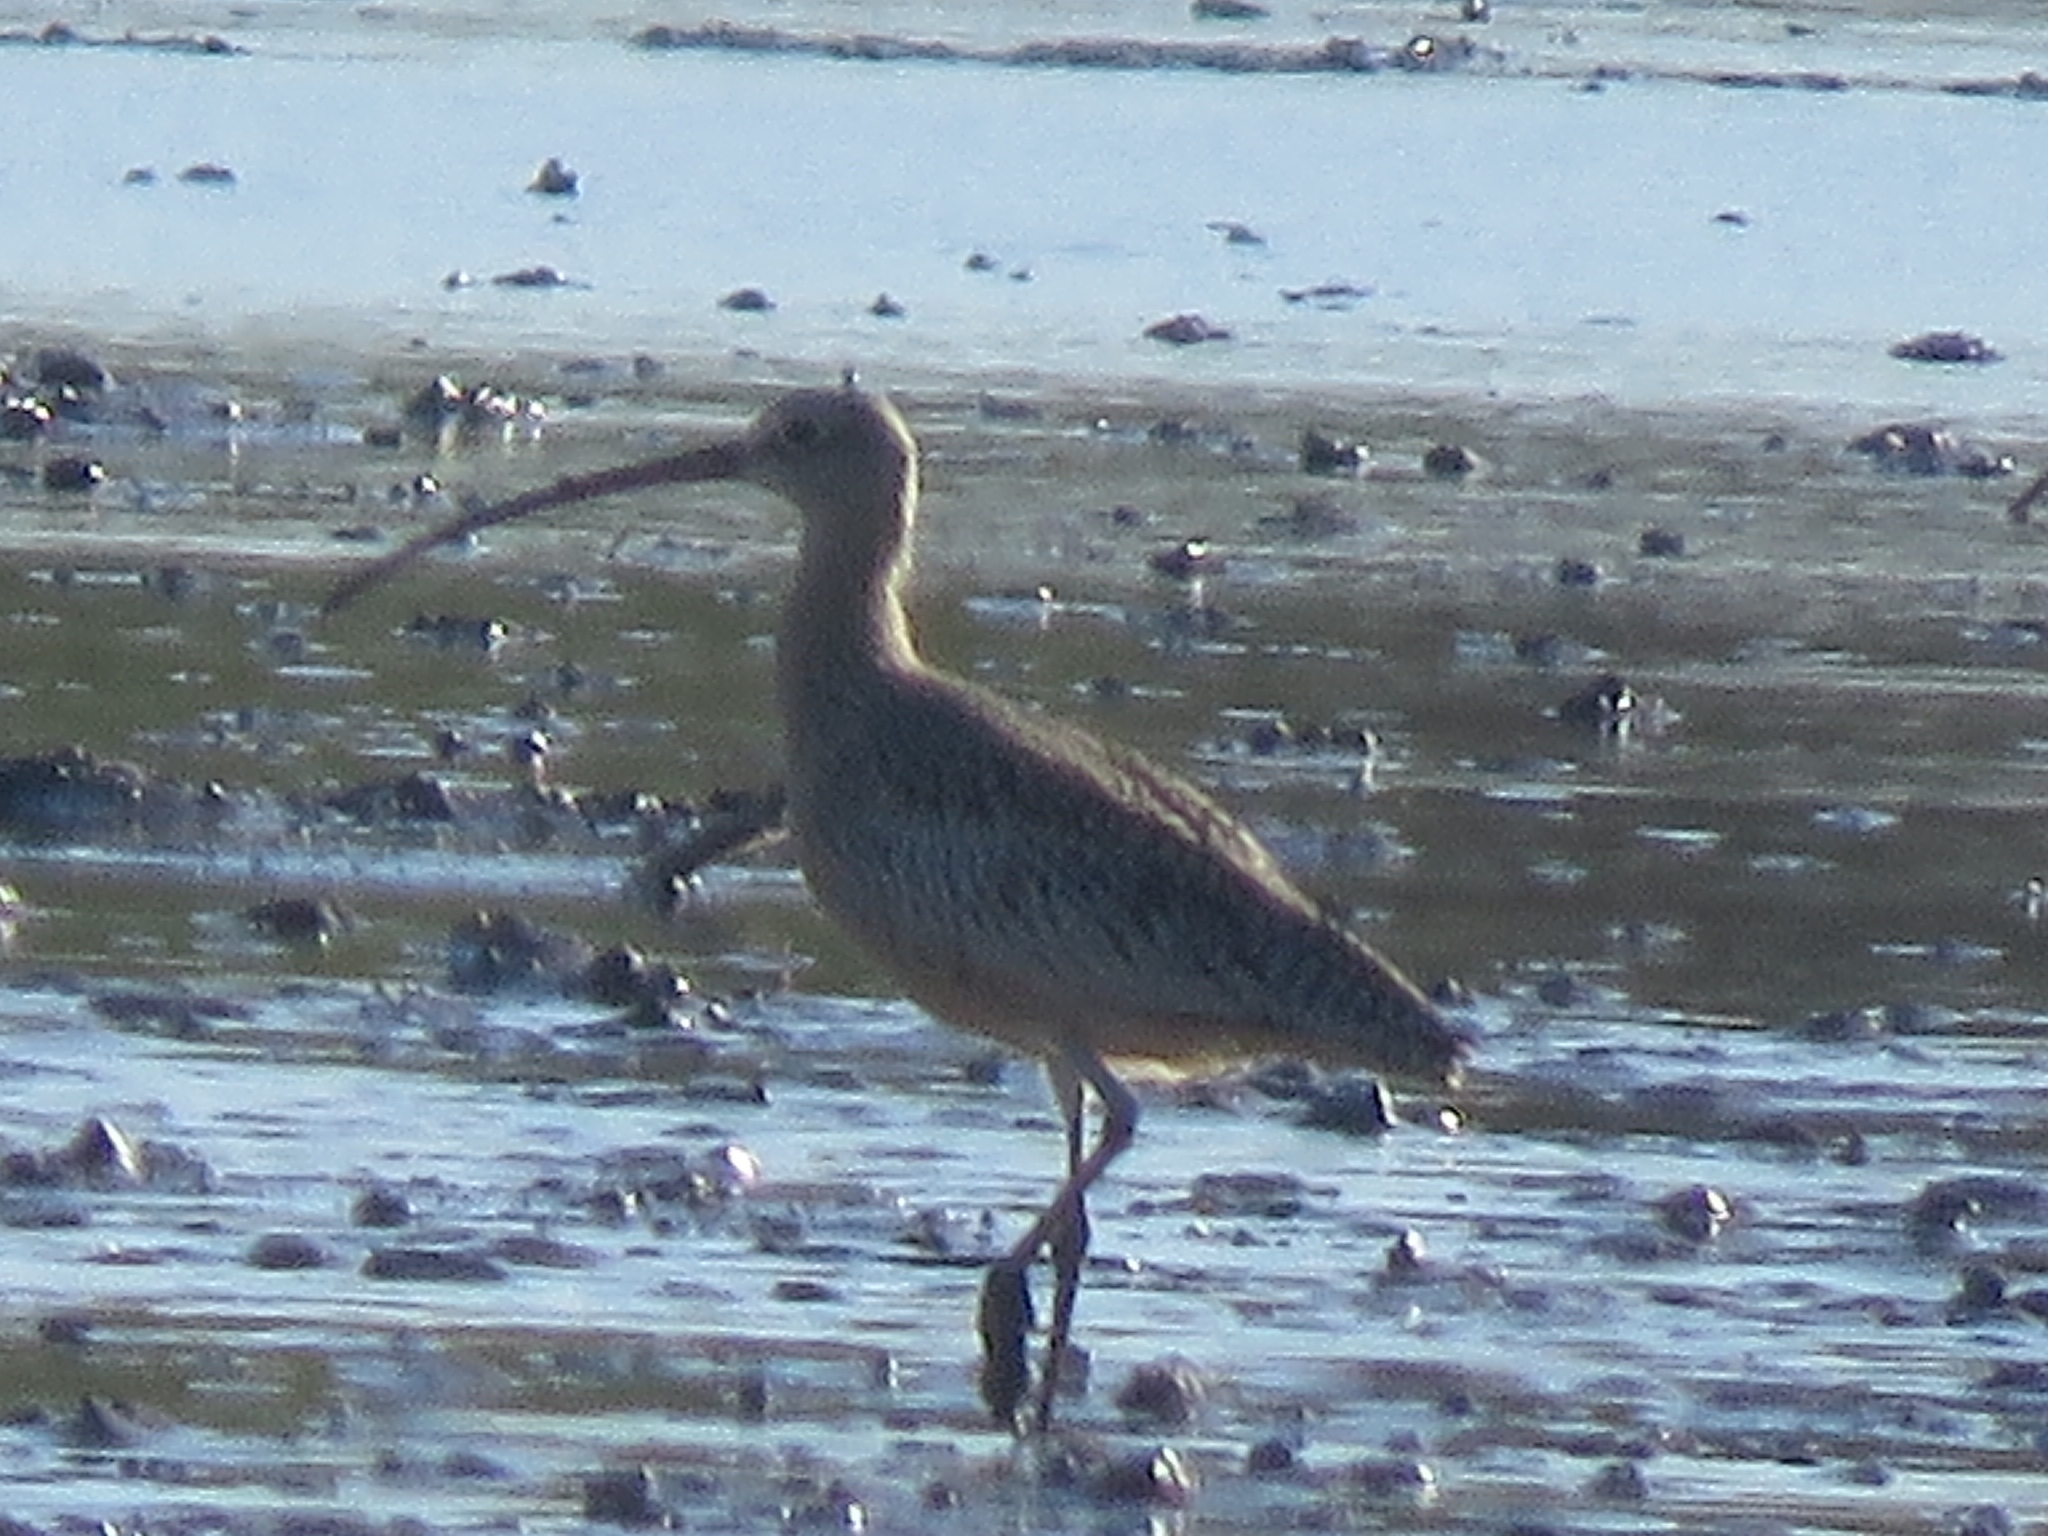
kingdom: Animalia
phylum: Chordata
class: Aves
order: Charadriiformes
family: Scolopacidae
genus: Numenius
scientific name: Numenius americanus
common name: Long-billed curlew
